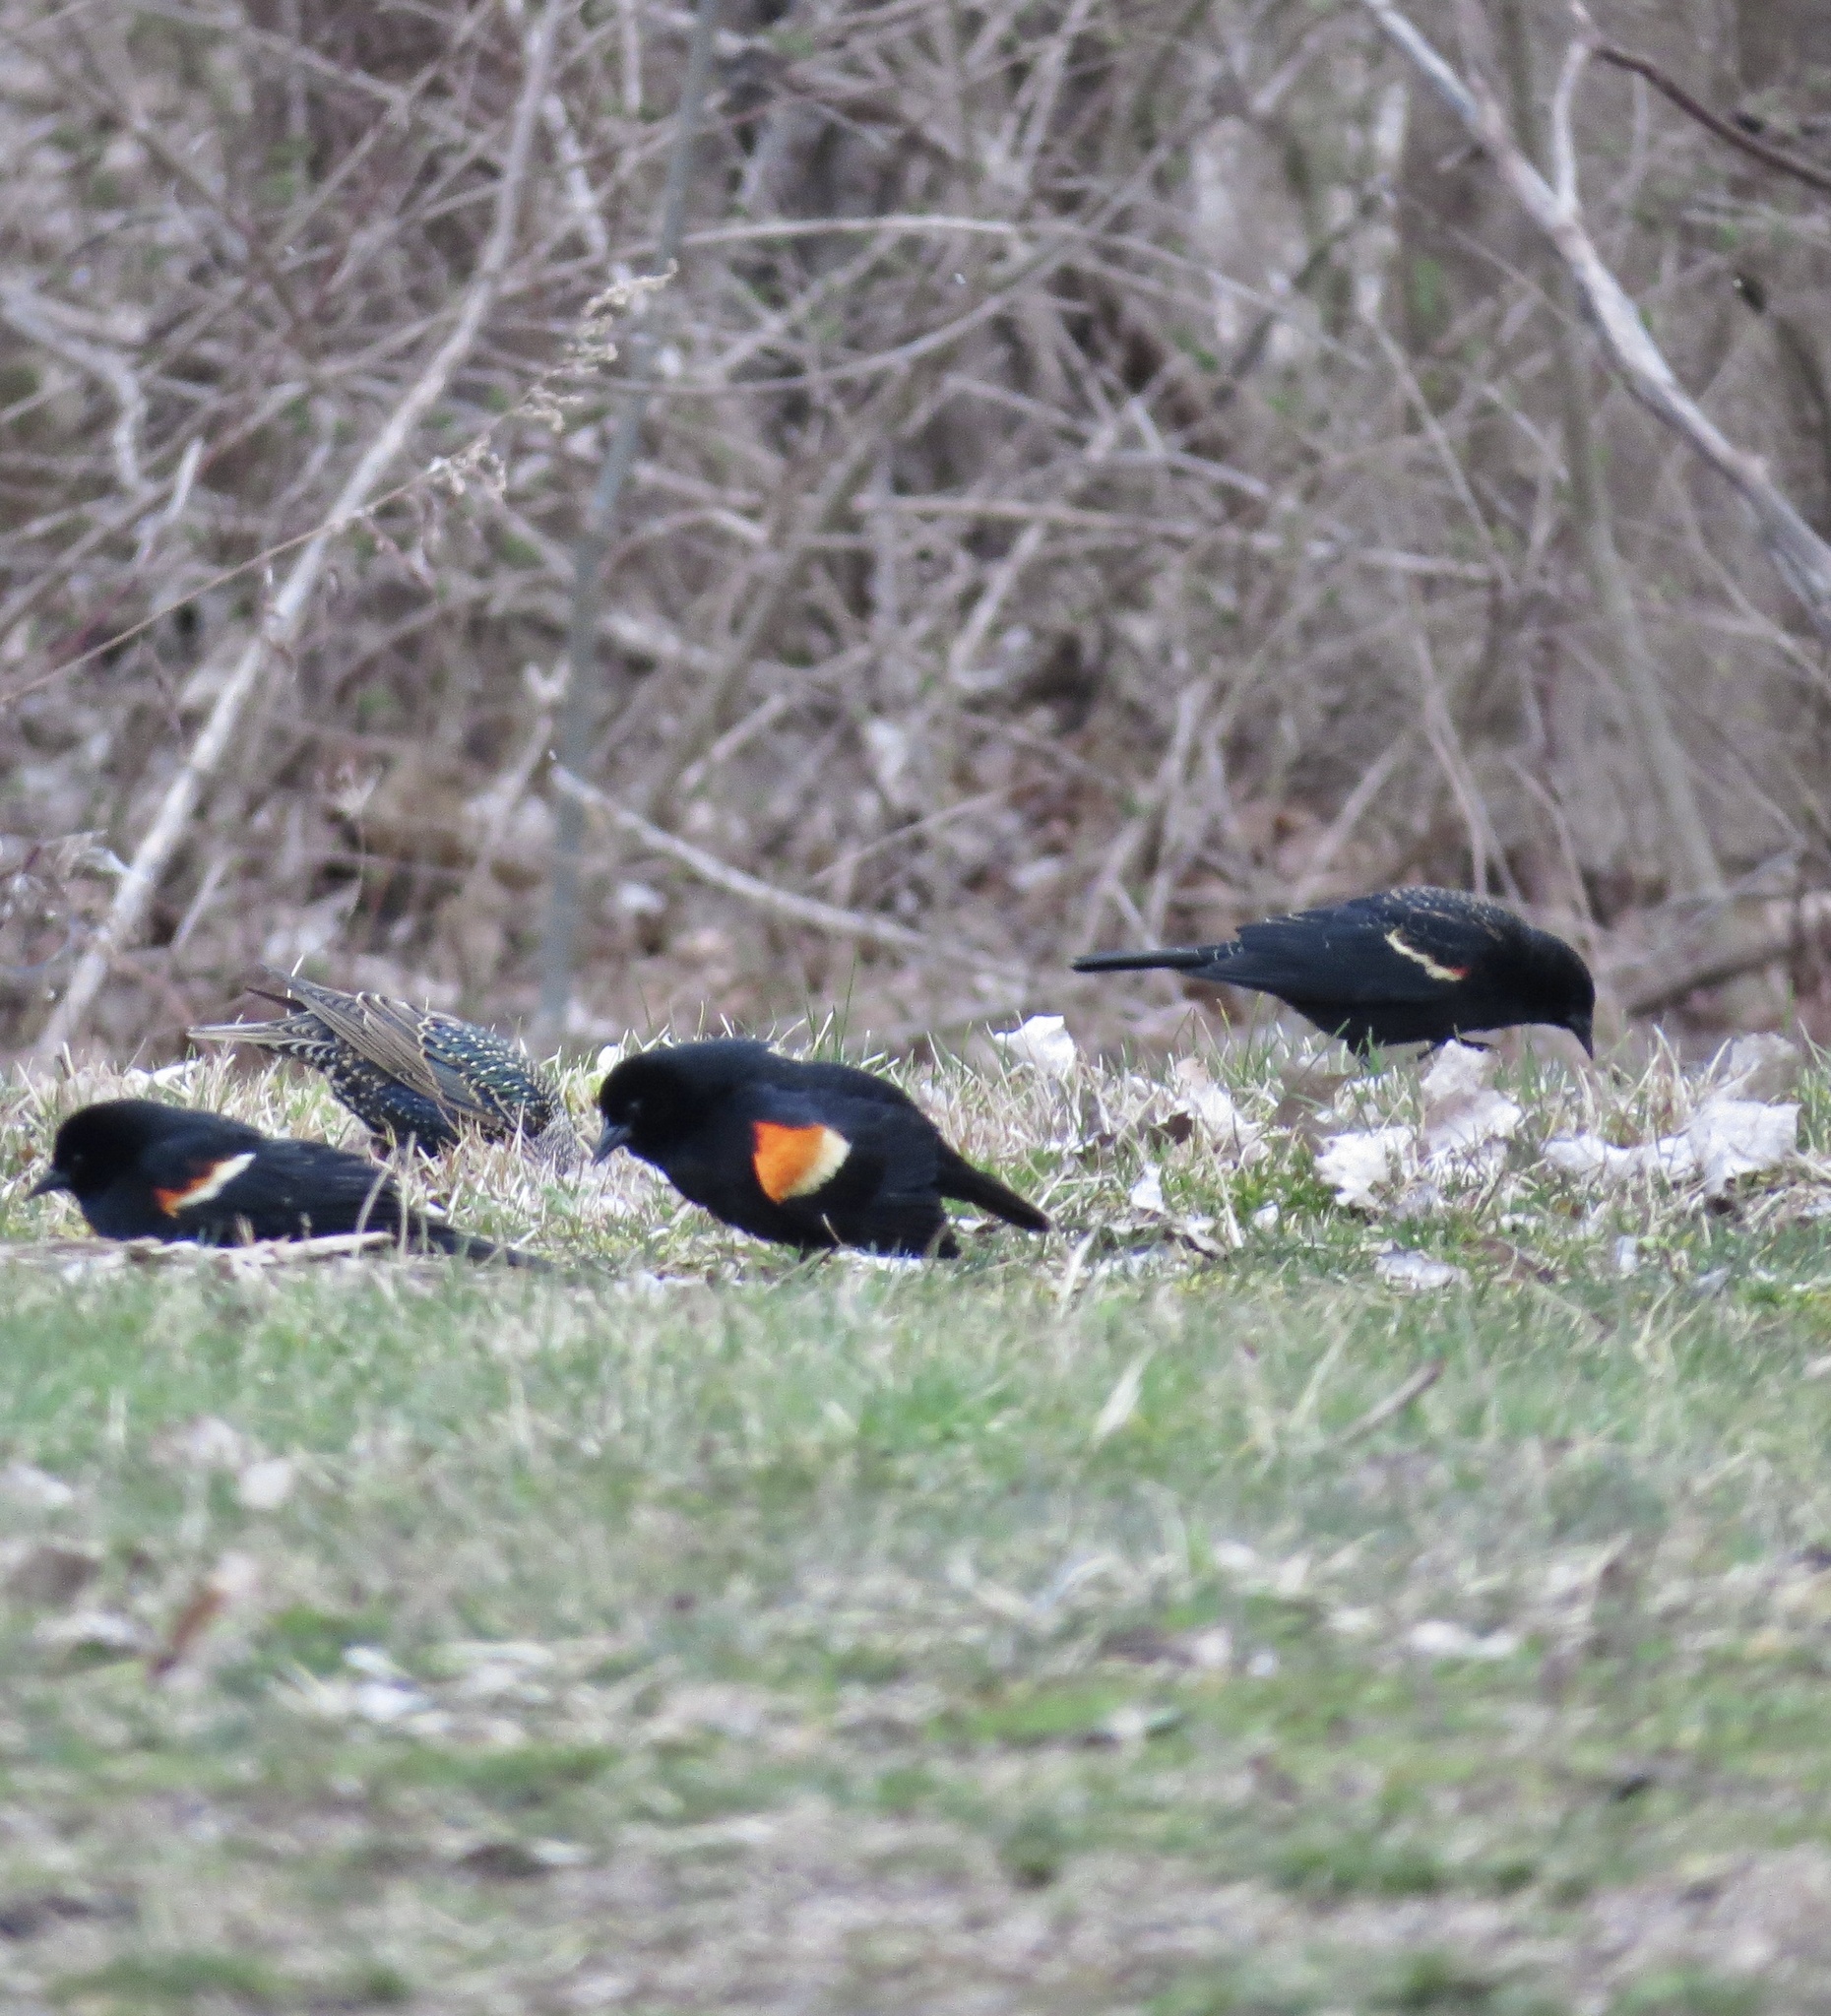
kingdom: Animalia
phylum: Chordata
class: Aves
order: Passeriformes
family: Icteridae
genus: Agelaius
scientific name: Agelaius phoeniceus
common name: Red-winged blackbird
